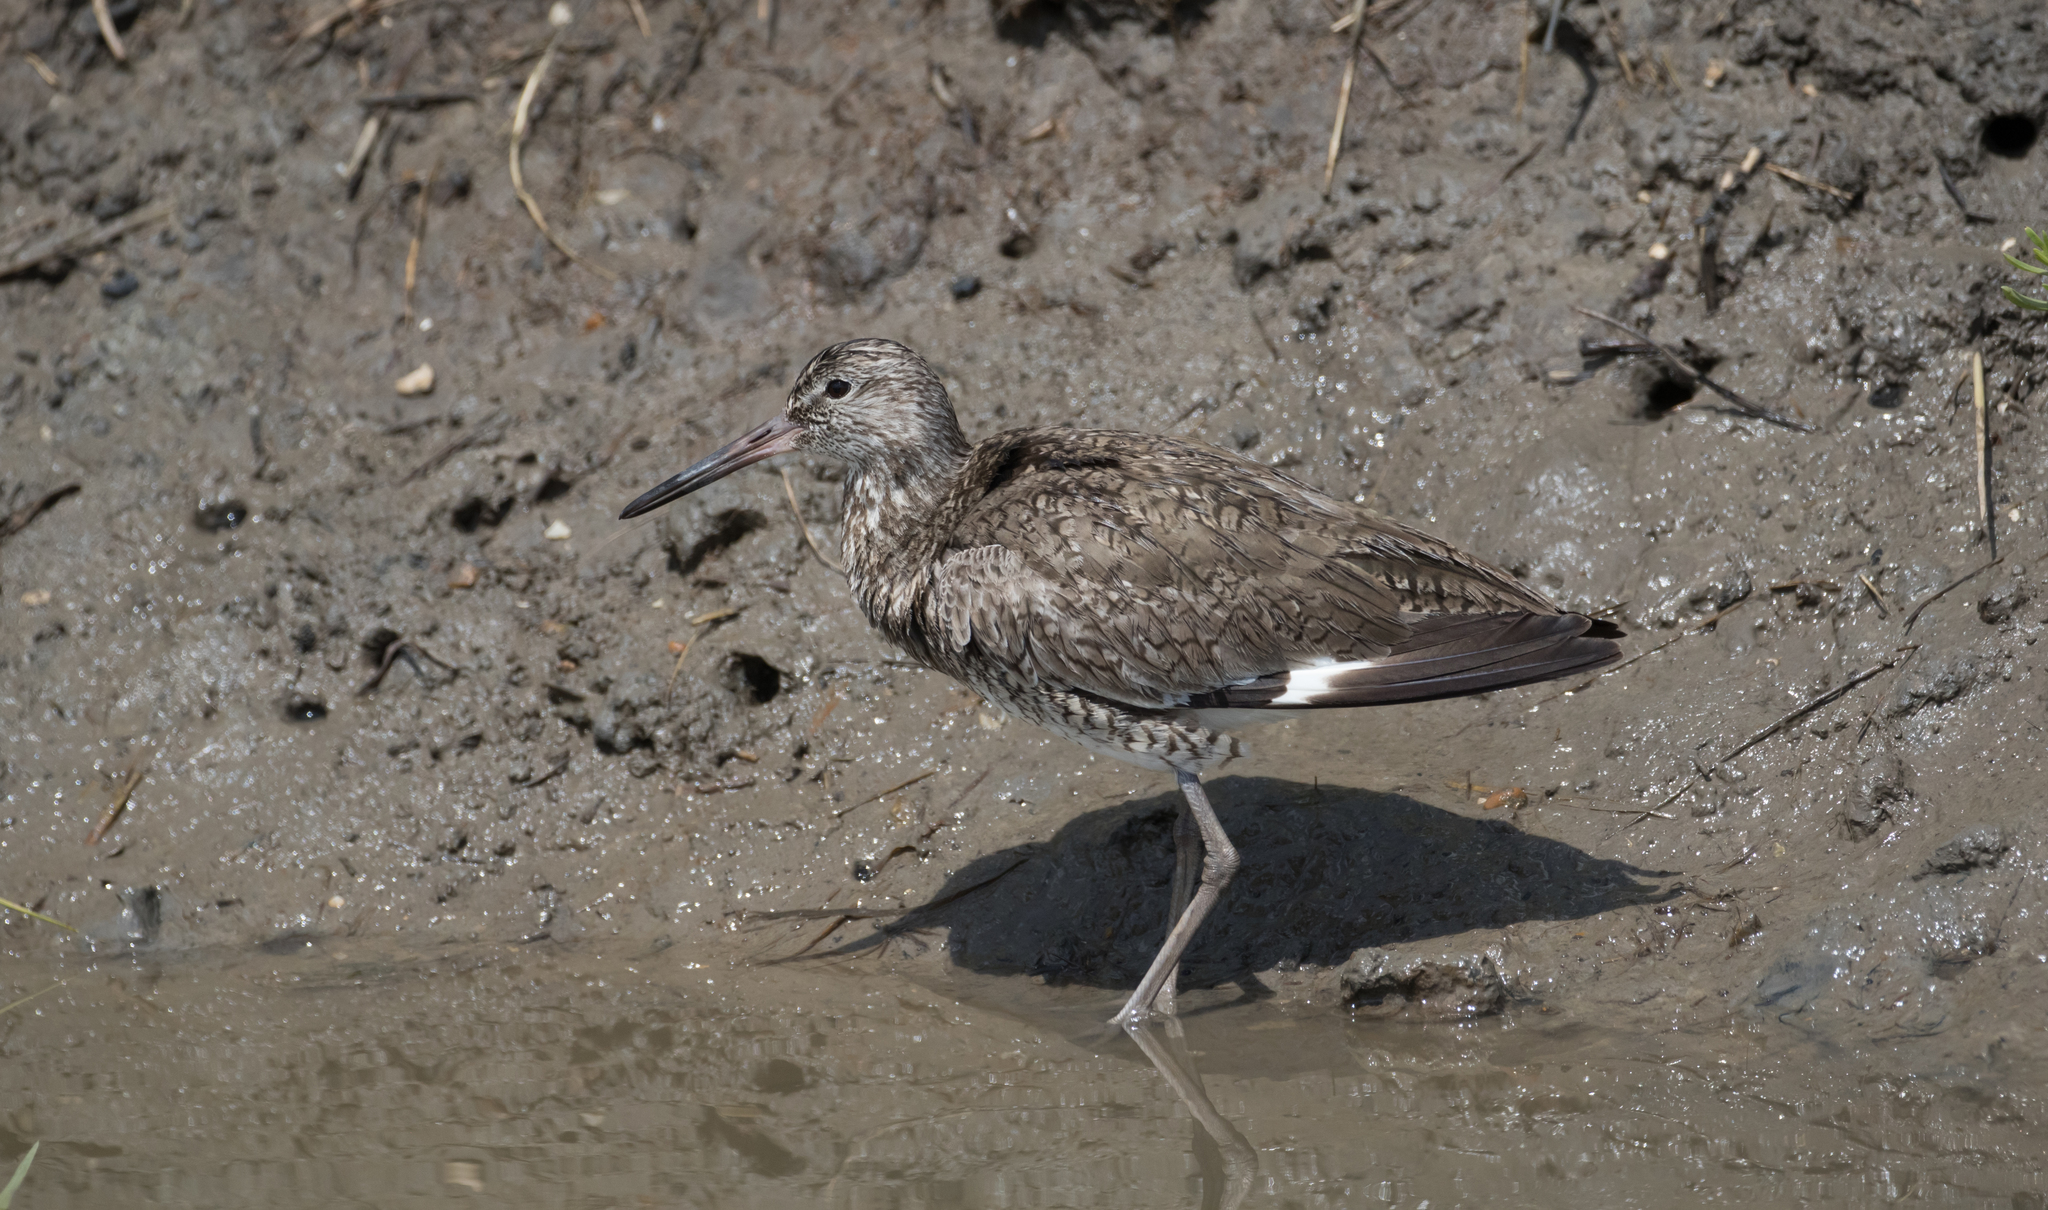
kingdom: Animalia
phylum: Chordata
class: Aves
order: Charadriiformes
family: Scolopacidae
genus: Tringa
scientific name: Tringa semipalmata
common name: Willet
